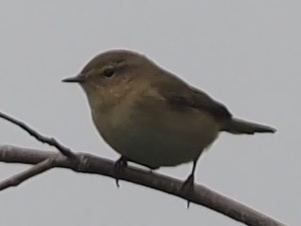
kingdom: Animalia
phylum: Chordata
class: Aves
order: Passeriformes
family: Phylloscopidae
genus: Phylloscopus
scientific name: Phylloscopus collybita
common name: Common chiffchaff
